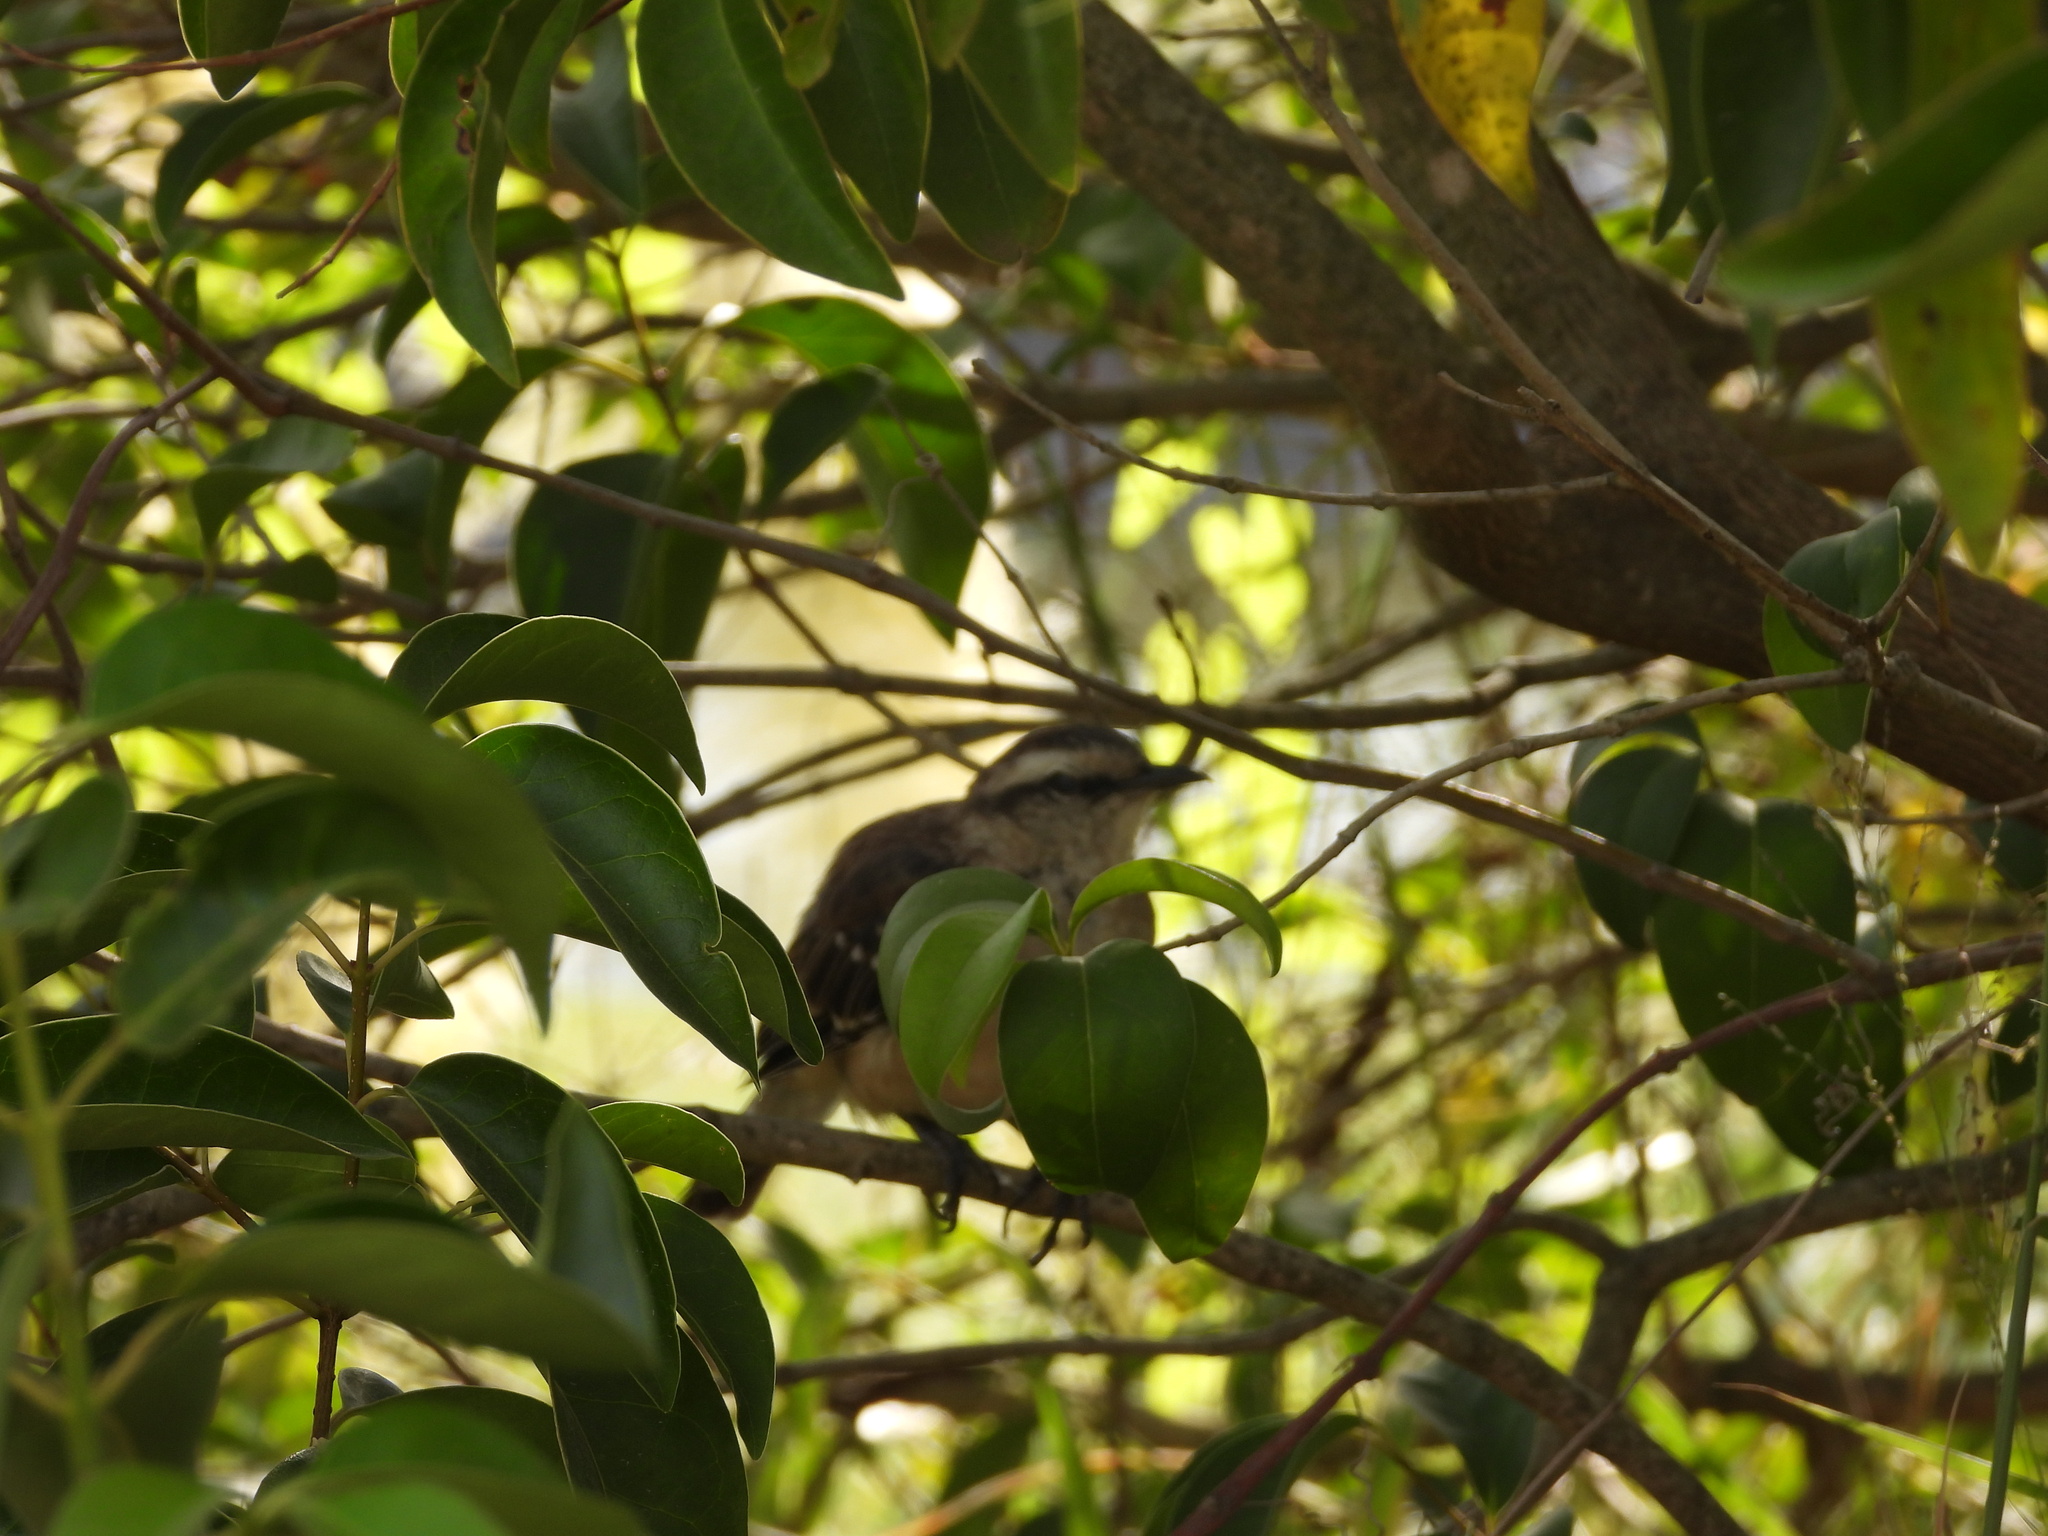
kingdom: Animalia
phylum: Chordata
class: Aves
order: Passeriformes
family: Mimidae
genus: Mimus
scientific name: Mimus saturninus
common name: Chalk-browed mockingbird
